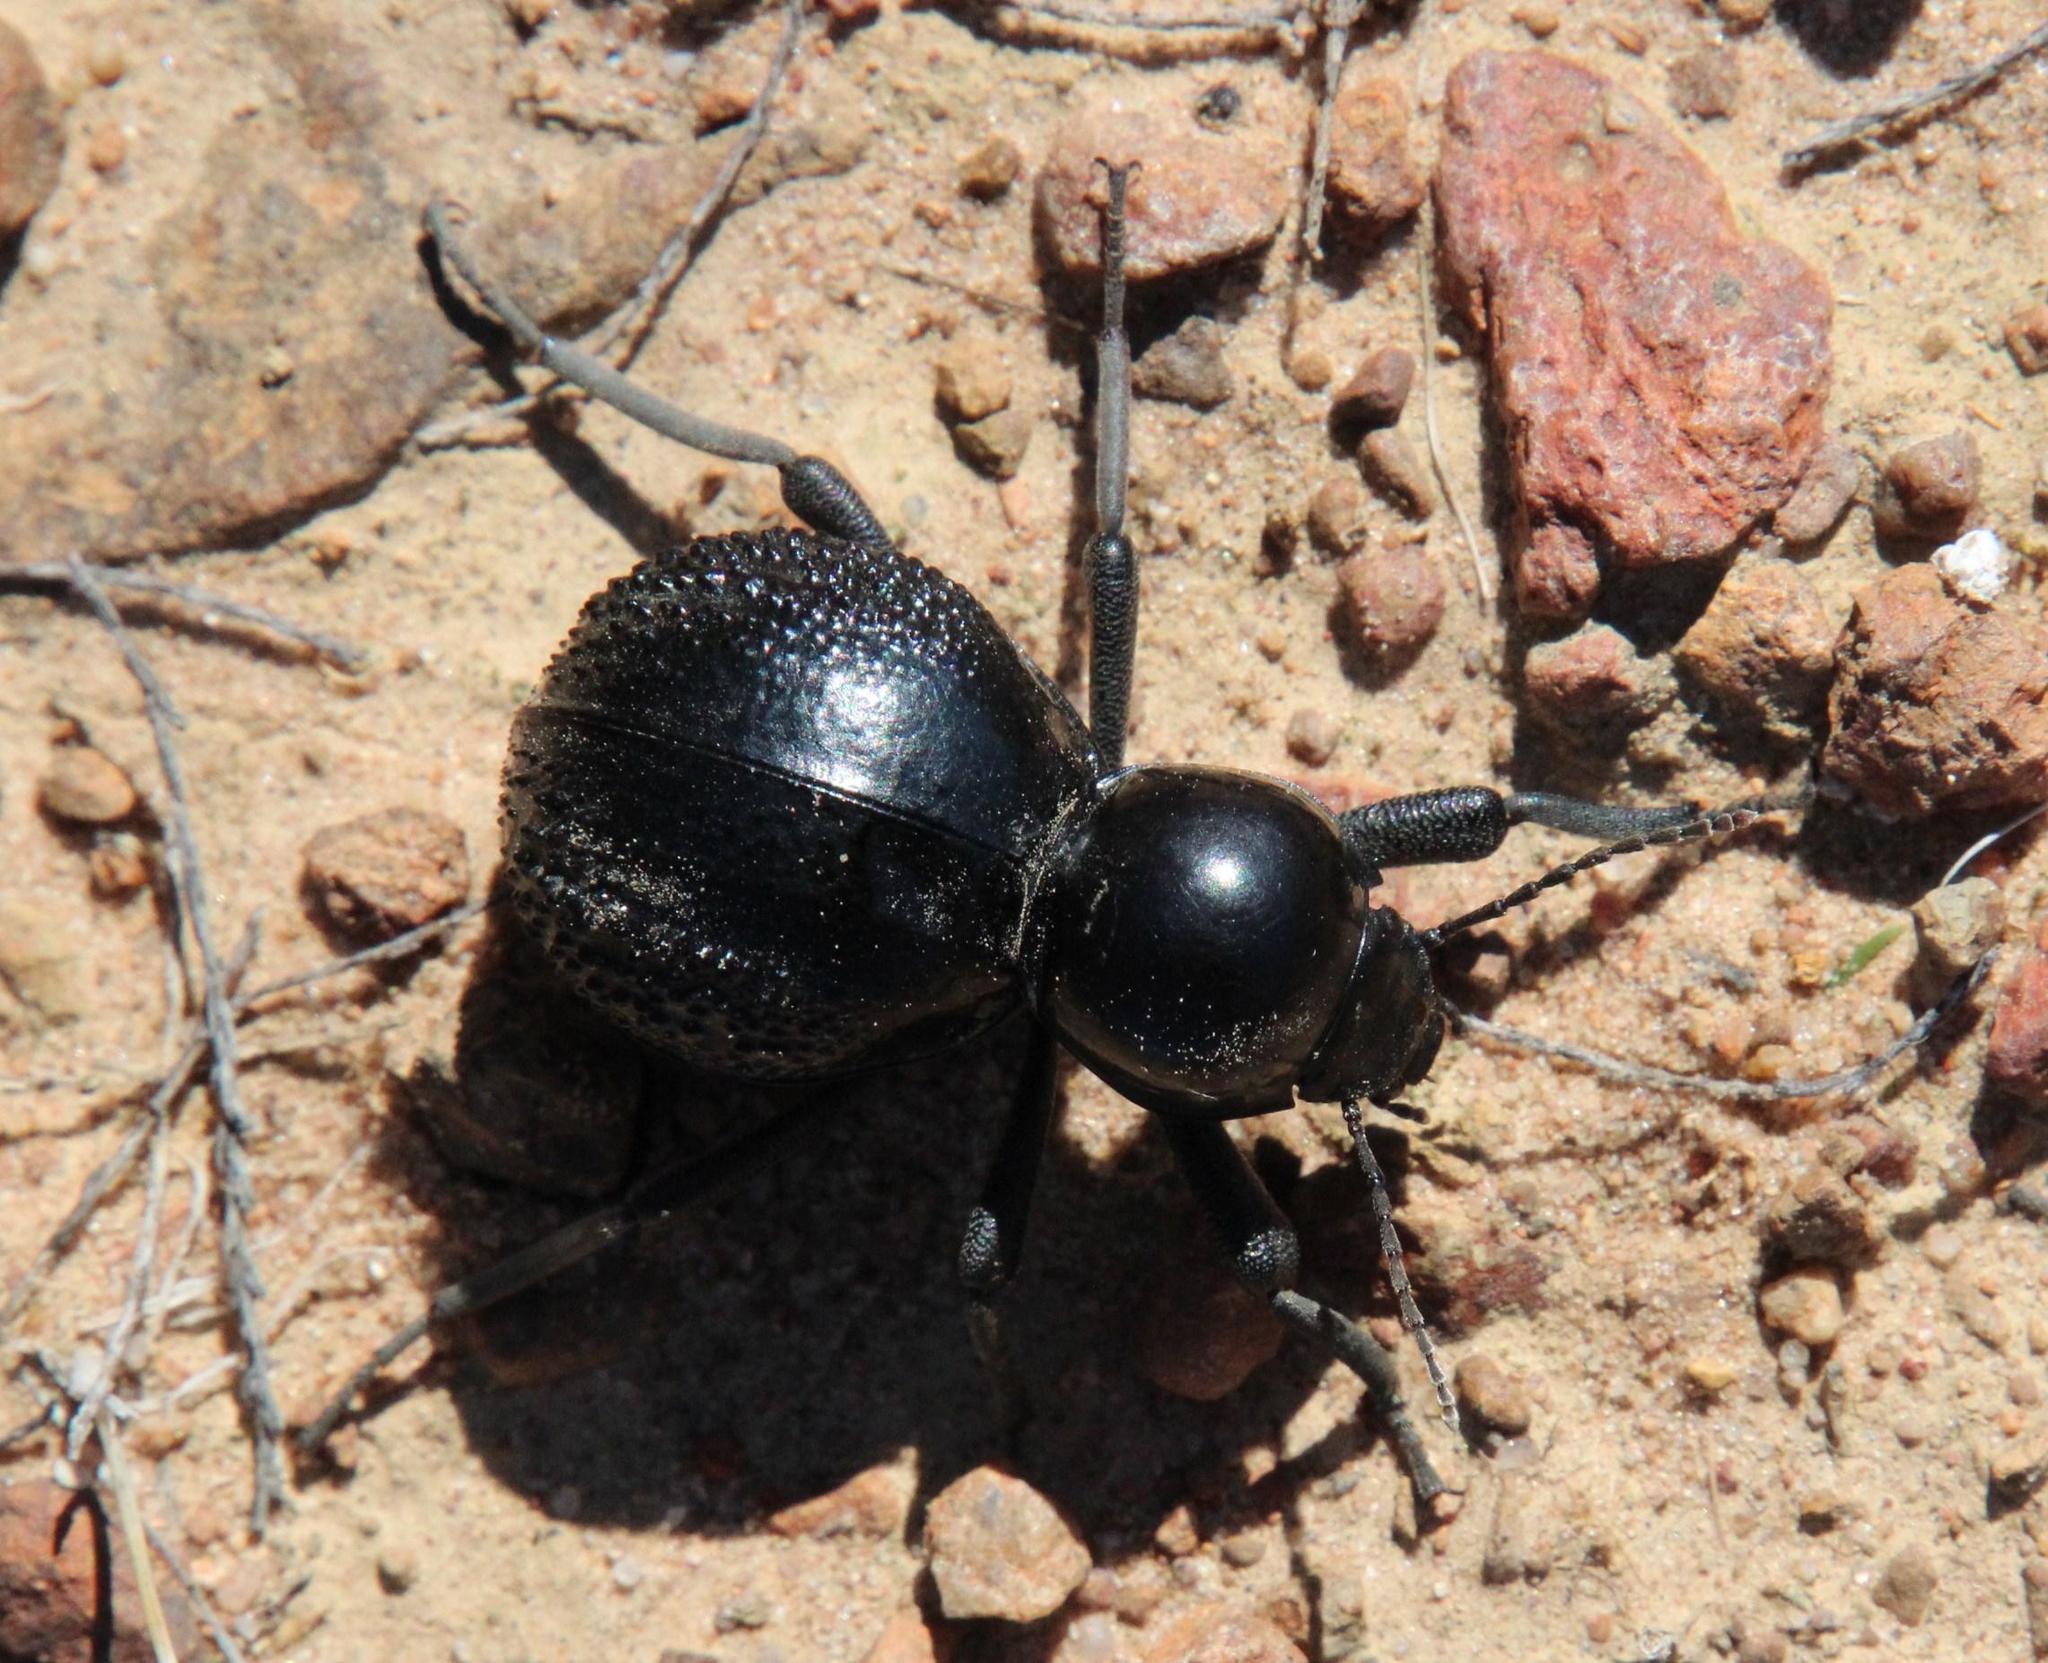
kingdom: Animalia
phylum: Arthropoda
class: Insecta
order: Coleoptera
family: Tenebrionidae
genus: Moluris
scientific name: Moluris semiscabra
